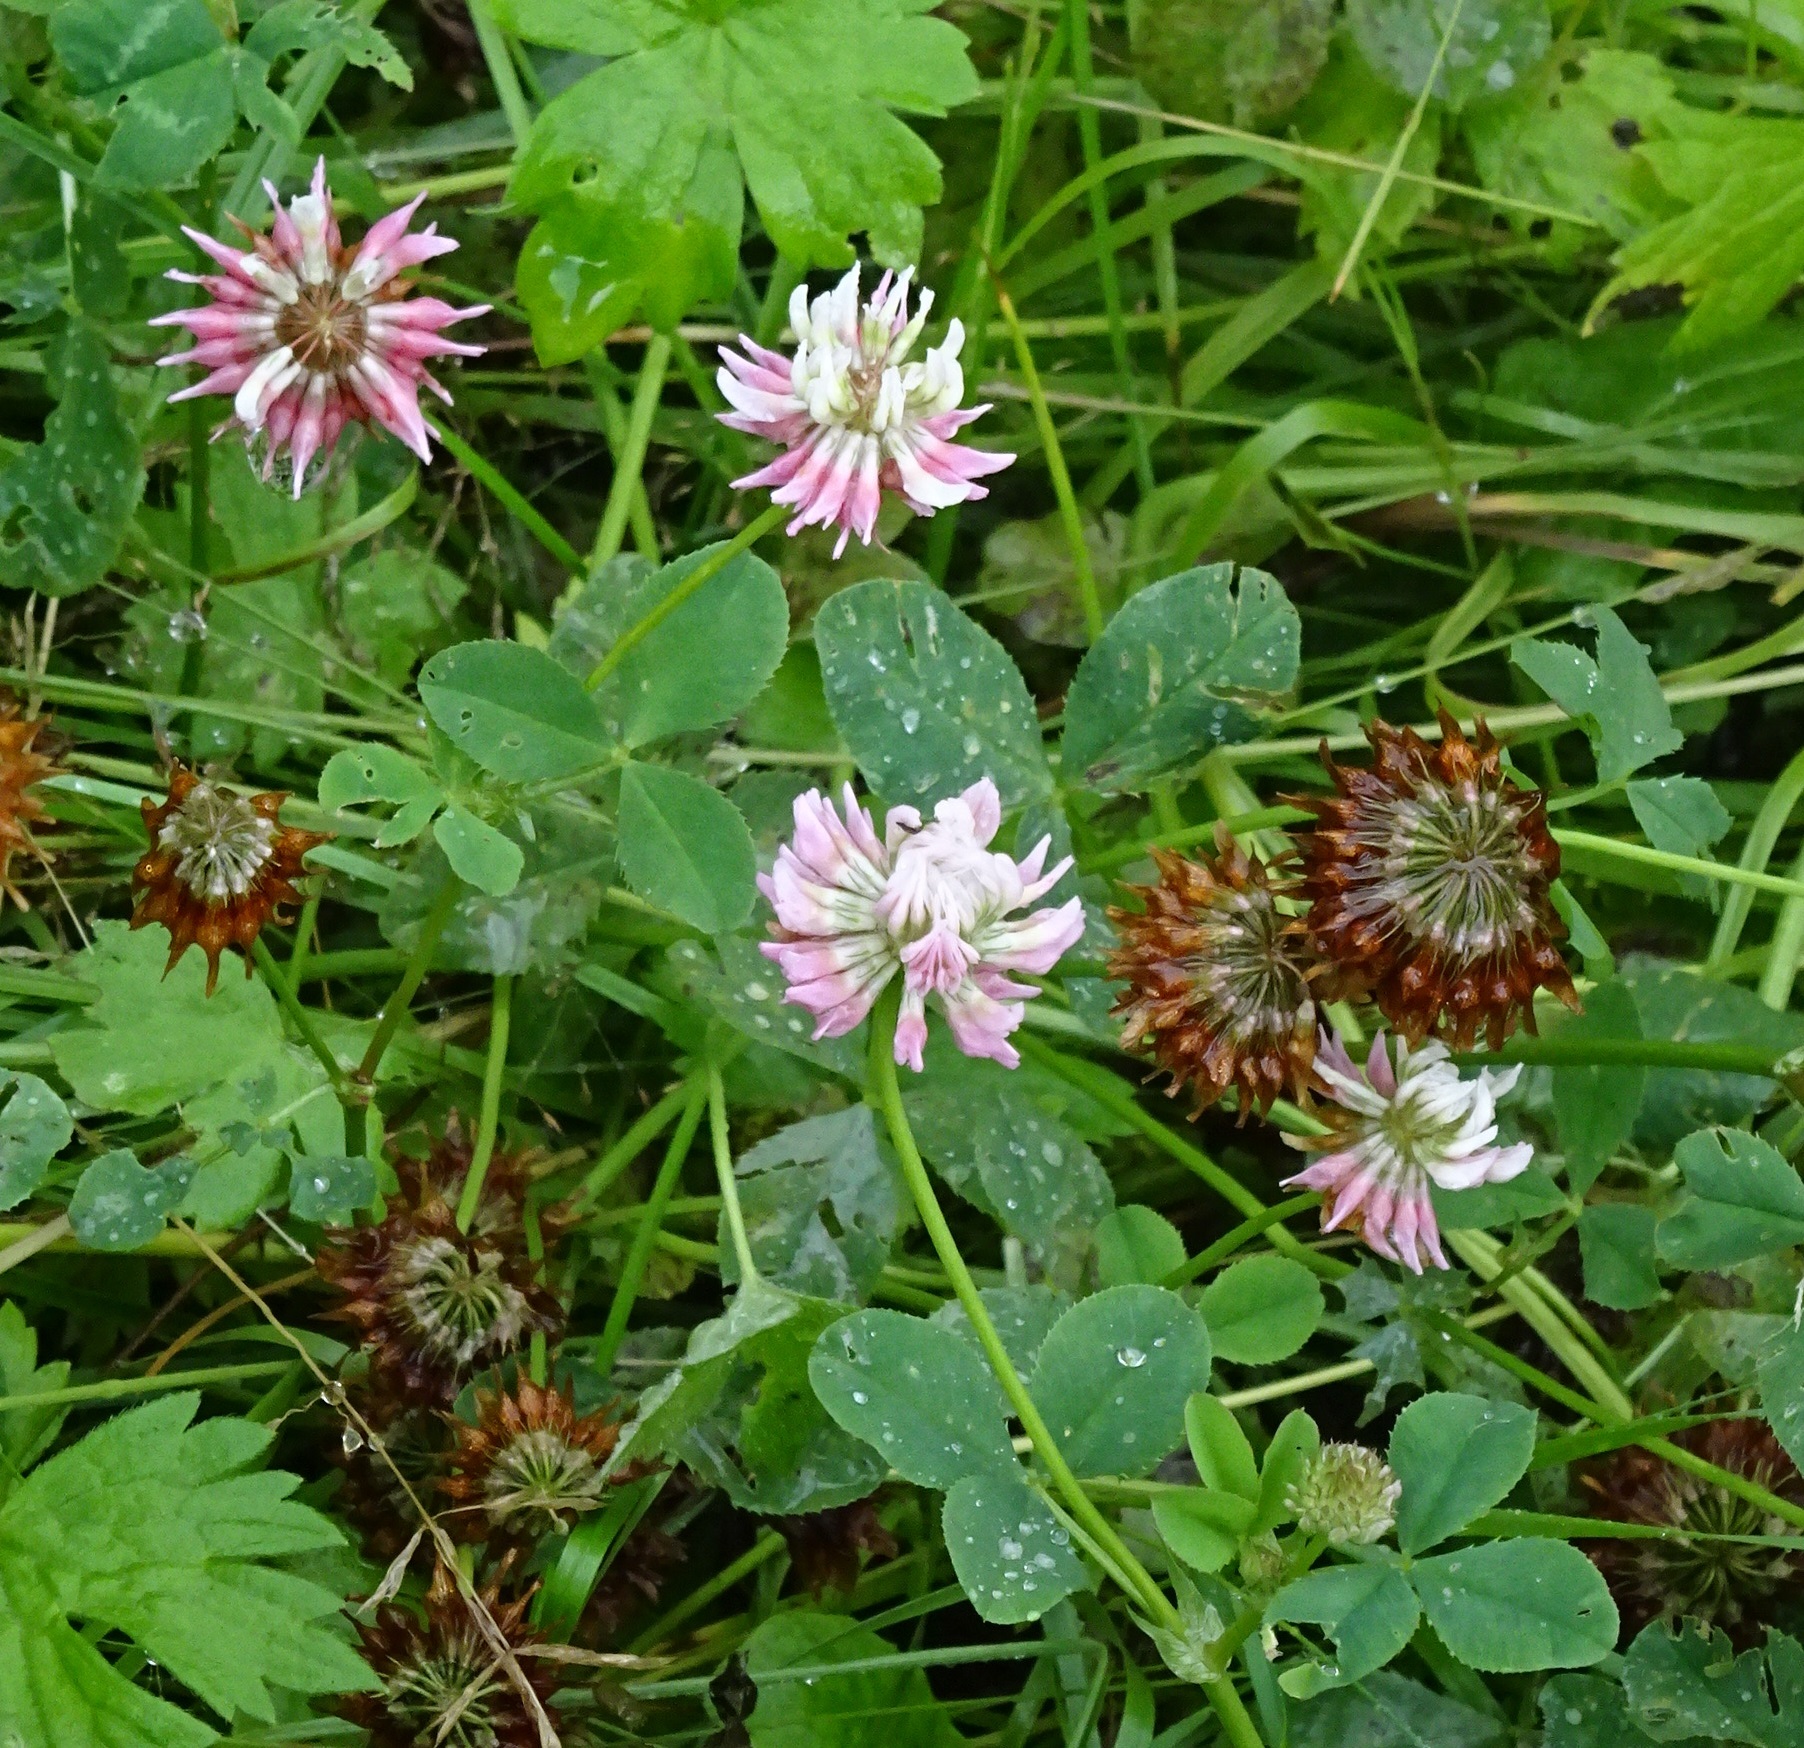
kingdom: Plantae
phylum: Tracheophyta
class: Magnoliopsida
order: Fabales
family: Fabaceae
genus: Trifolium
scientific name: Trifolium hybridum
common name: Alsike clover
